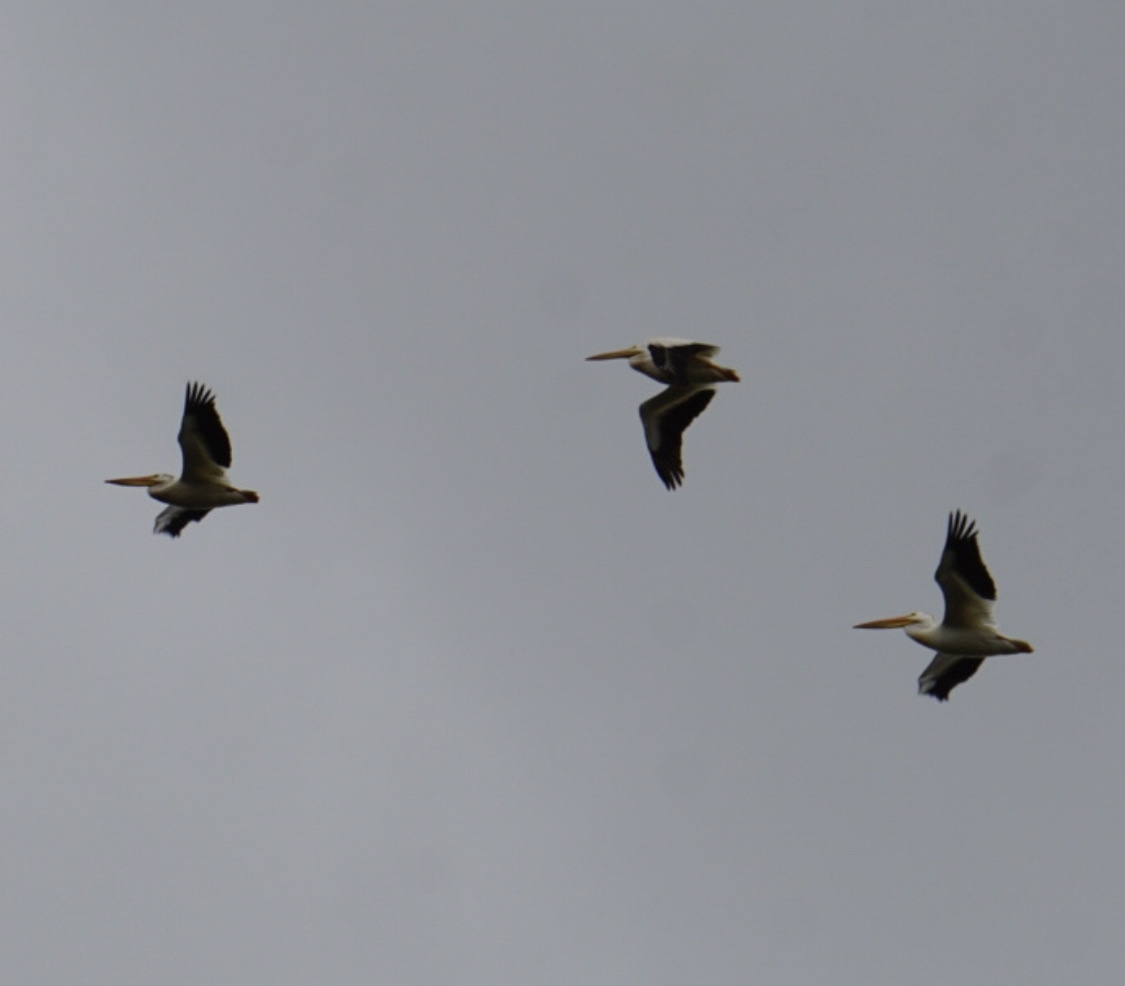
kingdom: Animalia
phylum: Chordata
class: Aves
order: Pelecaniformes
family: Pelecanidae
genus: Pelecanus
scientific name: Pelecanus erythrorhynchos
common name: American white pelican
